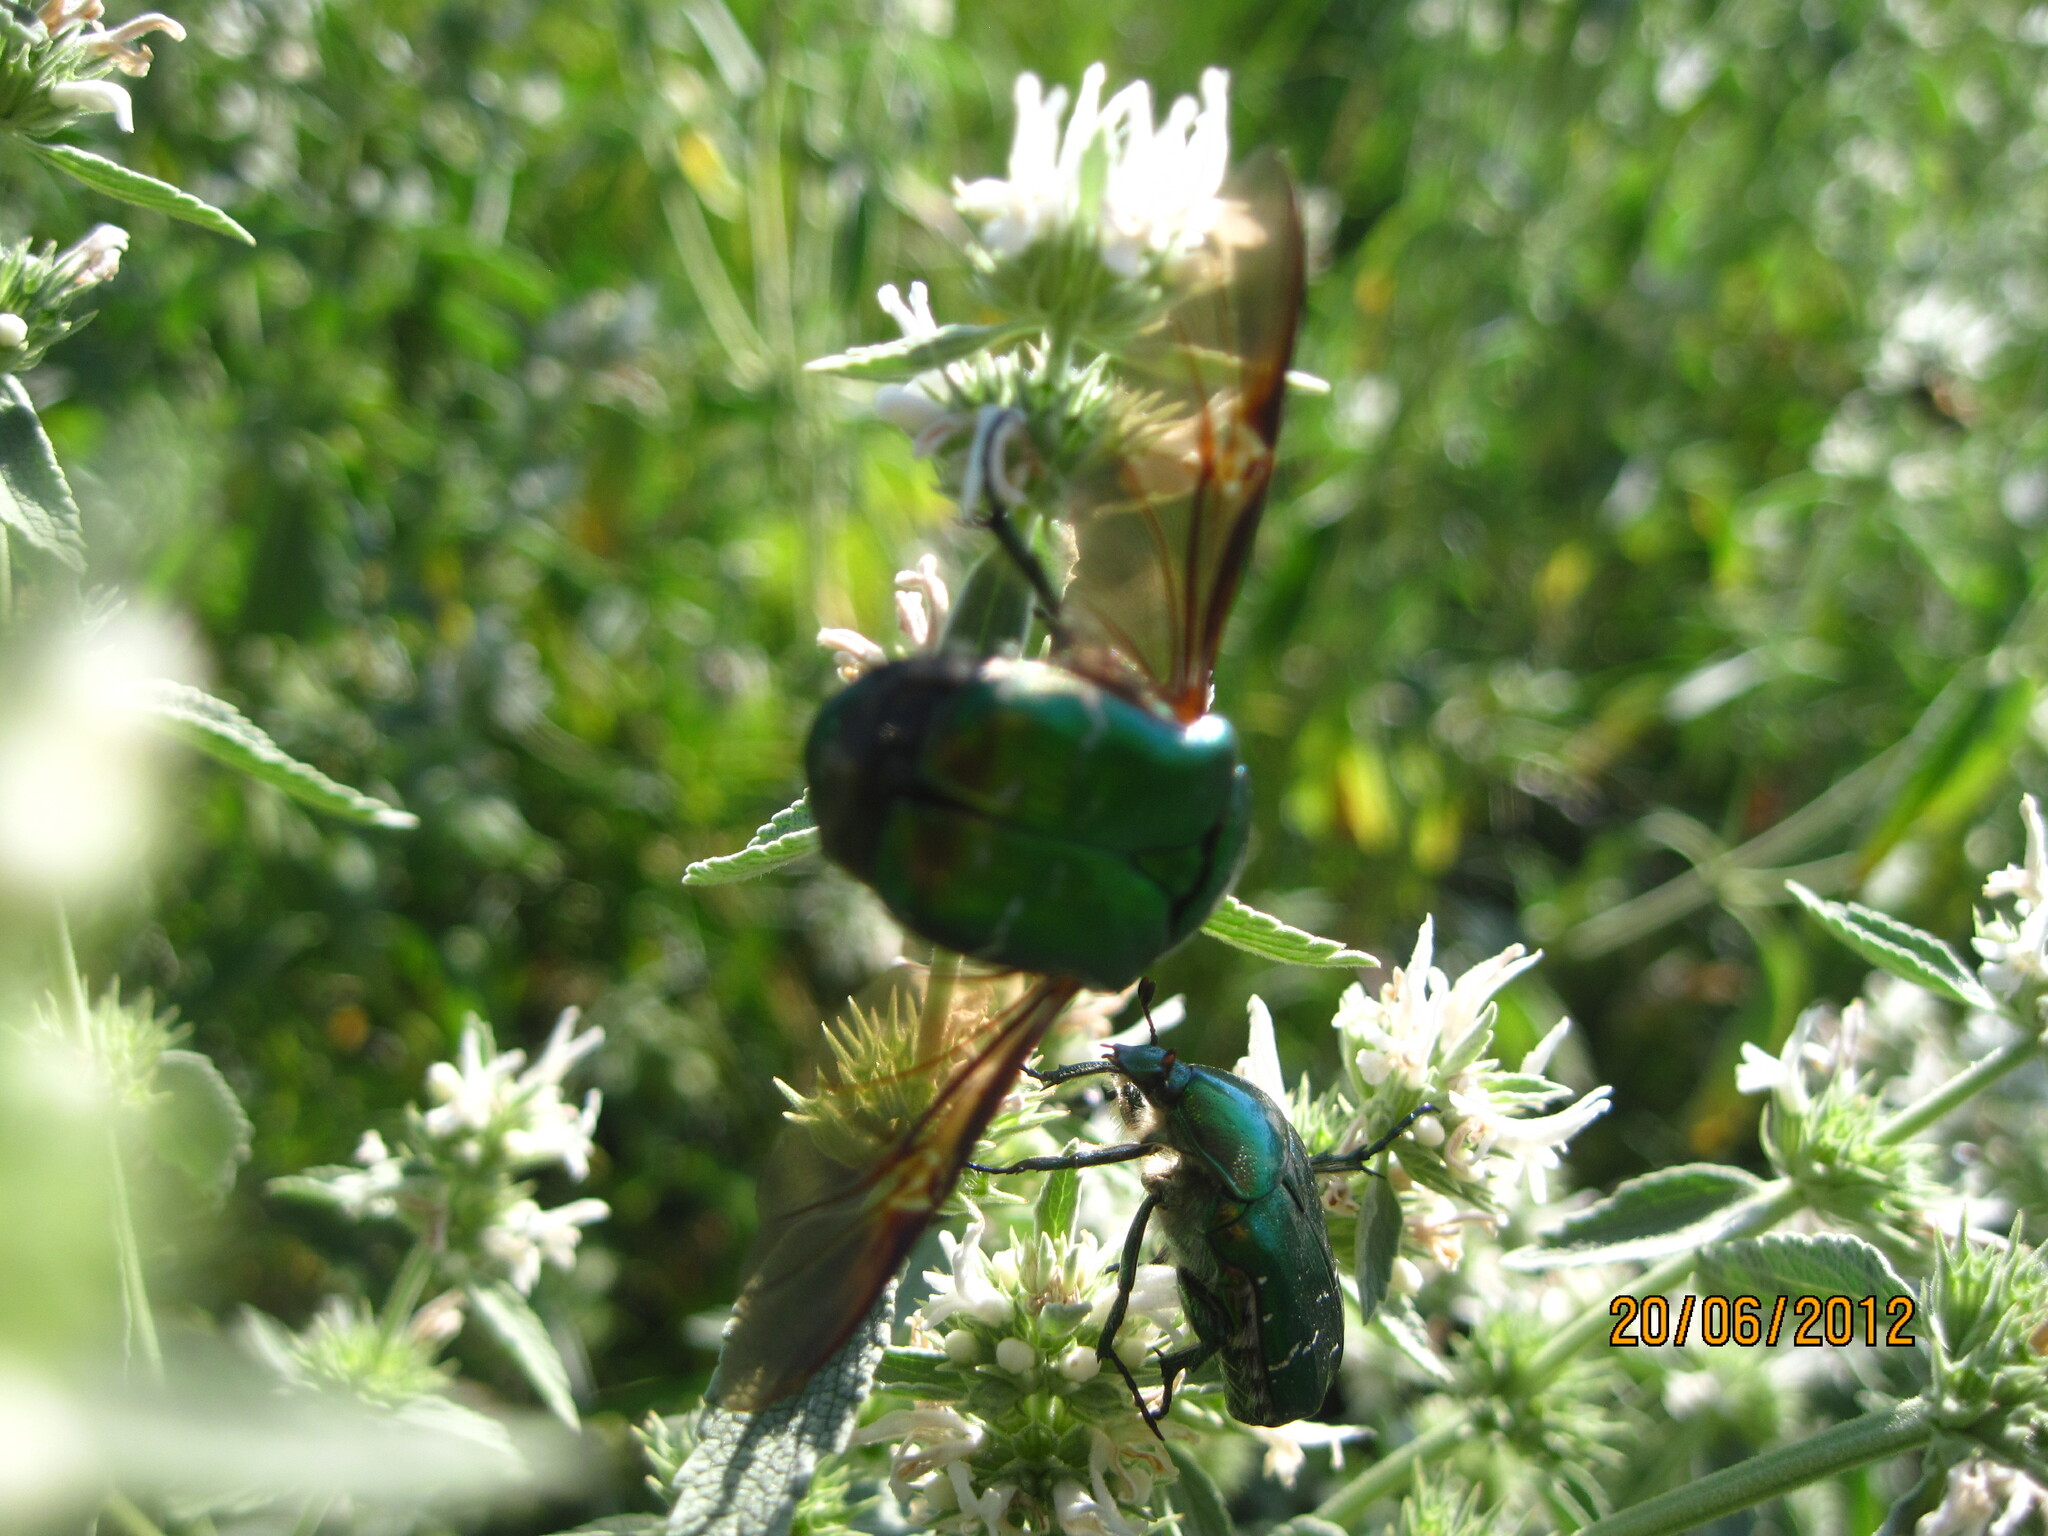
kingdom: Plantae
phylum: Tracheophyta
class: Magnoliopsida
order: Lamiales
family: Lamiaceae
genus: Marrubium
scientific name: Marrubium peregrinum
